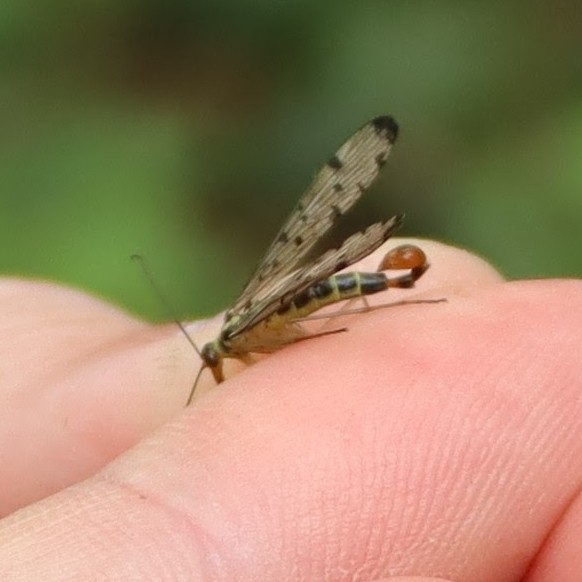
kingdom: Animalia
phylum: Arthropoda
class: Insecta
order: Mecoptera
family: Panorpidae
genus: Panorpa
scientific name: Panorpa germanica
